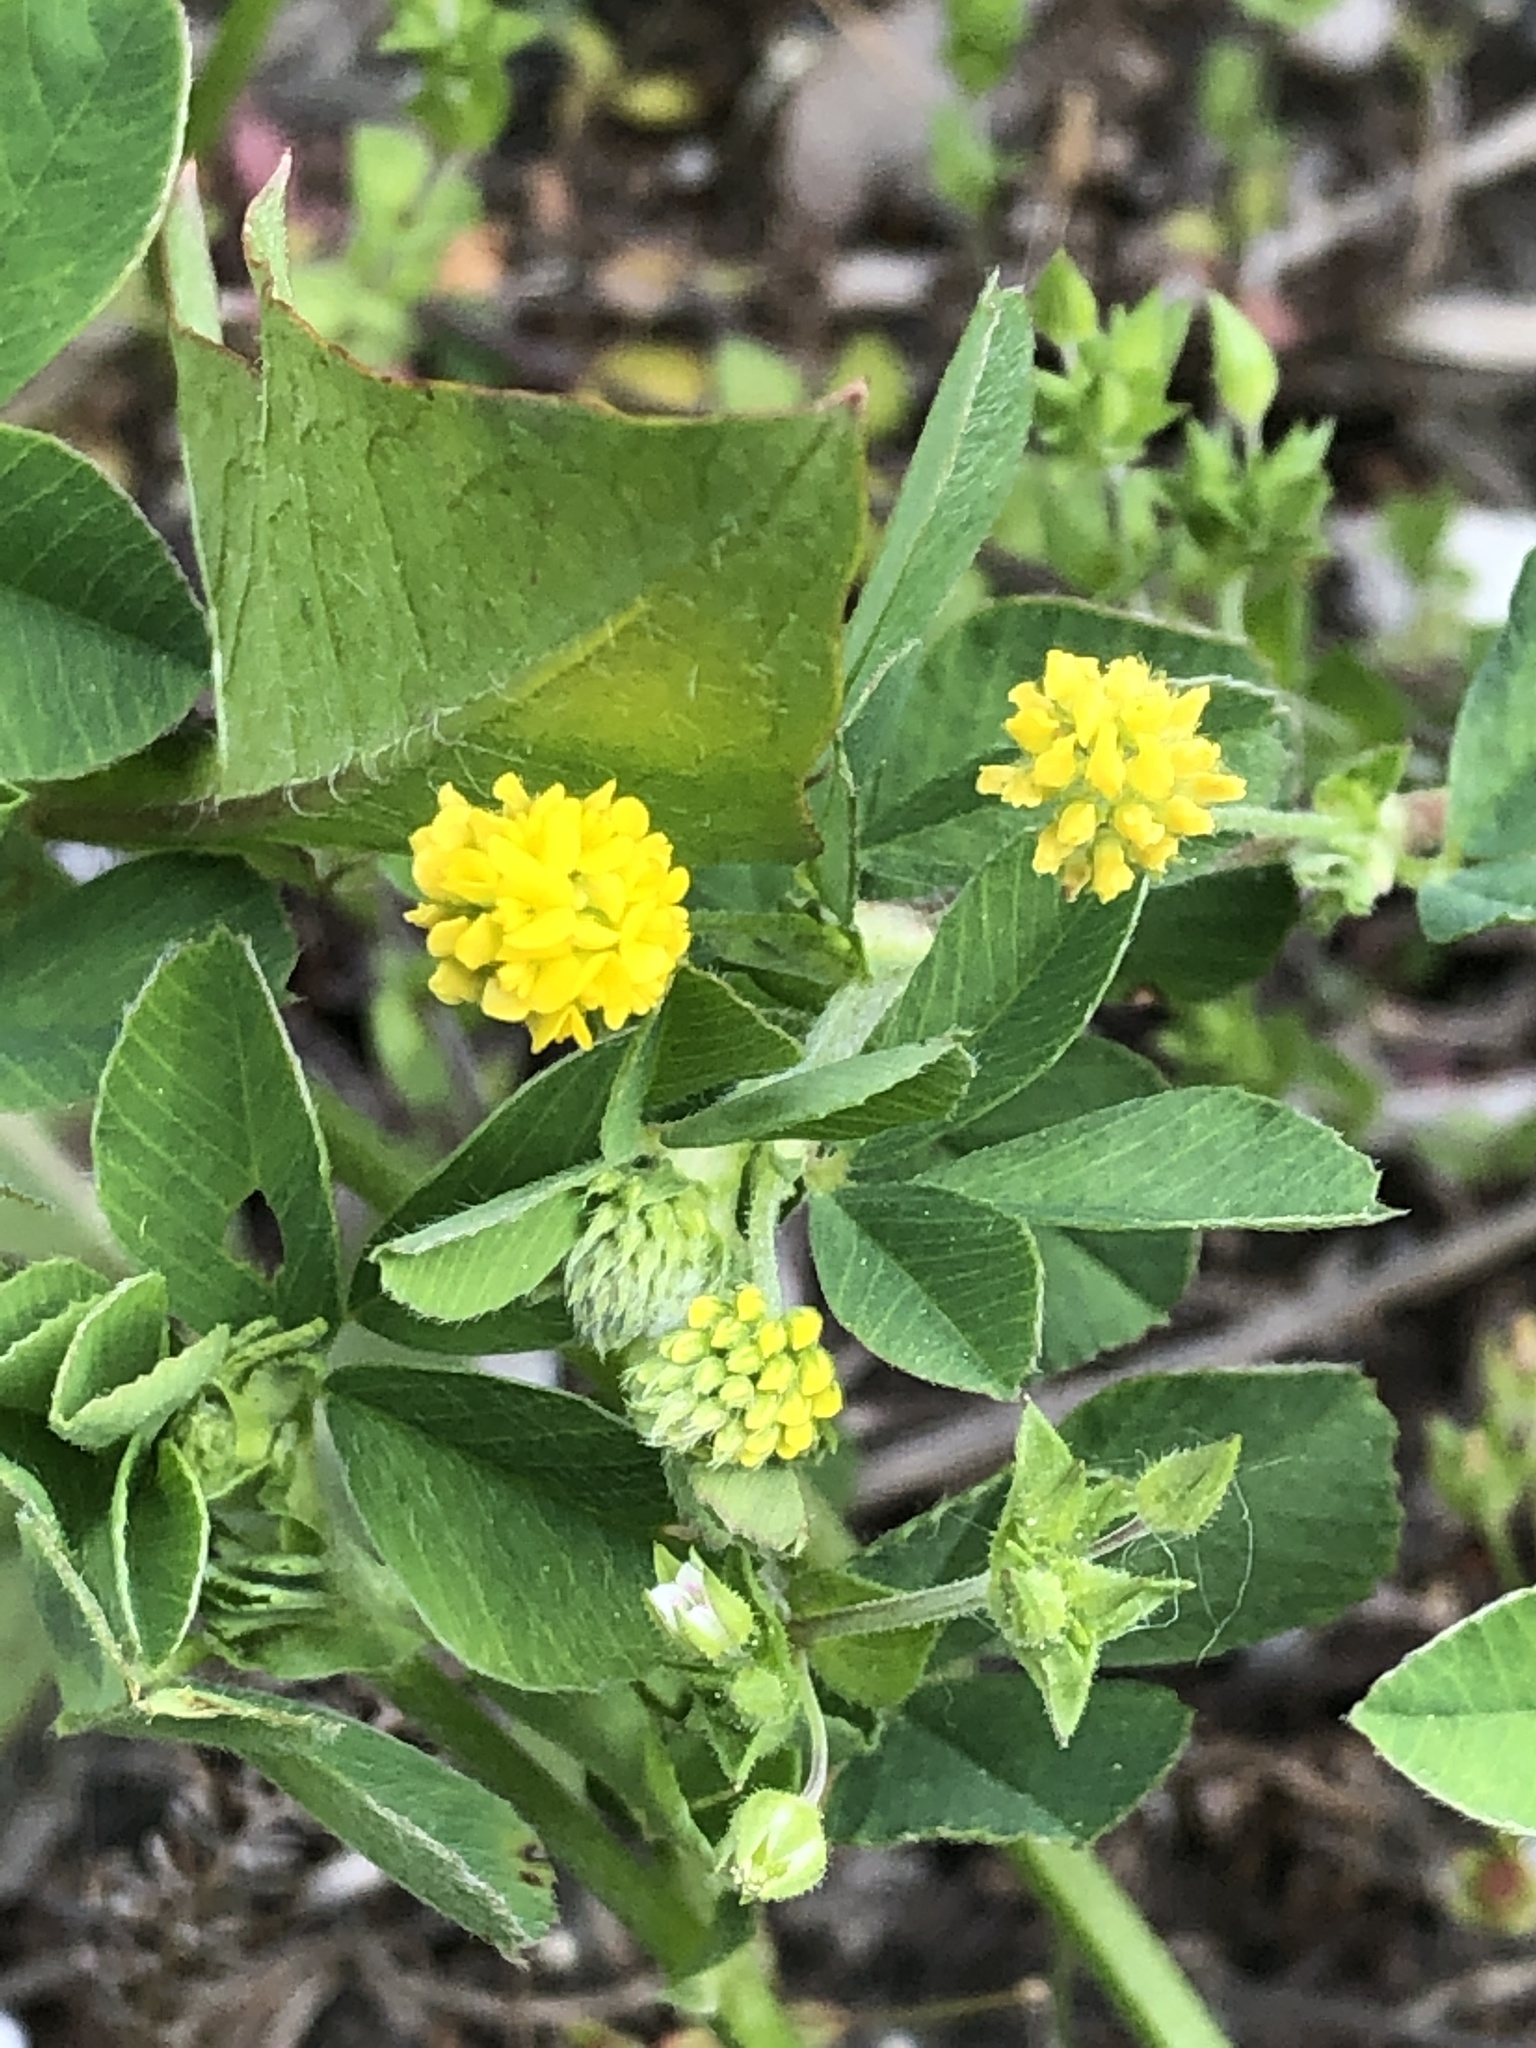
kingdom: Plantae
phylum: Tracheophyta
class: Magnoliopsida
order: Fabales
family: Fabaceae
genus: Medicago
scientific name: Medicago lupulina
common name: Black medick
